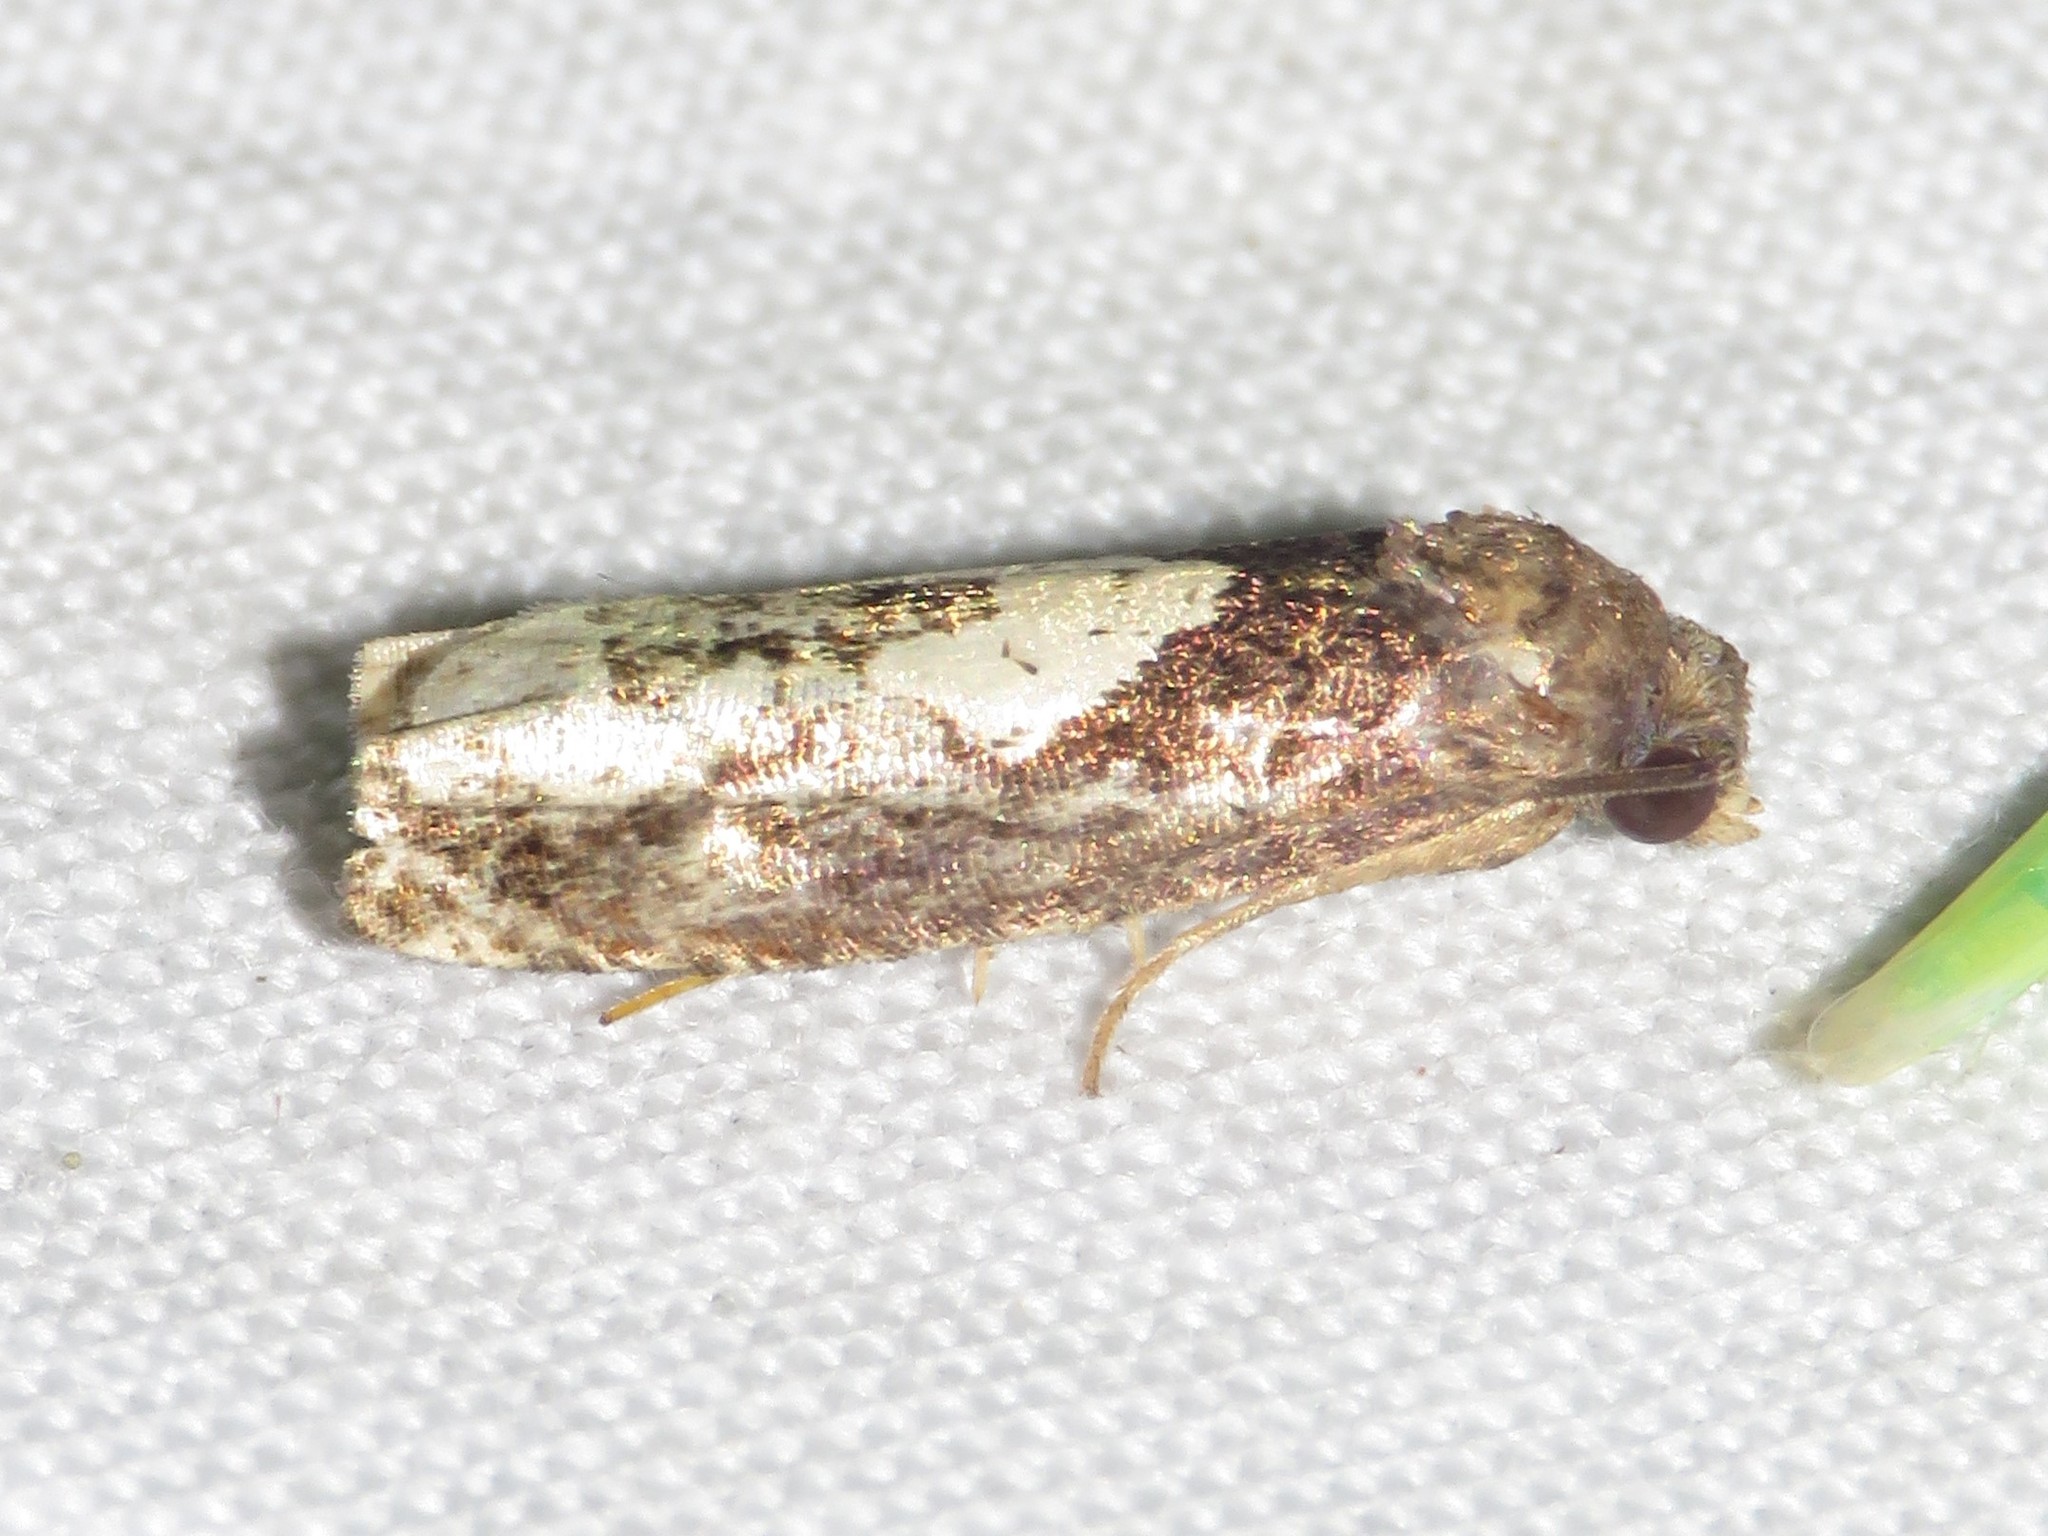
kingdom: Animalia
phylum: Arthropoda
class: Insecta
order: Lepidoptera
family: Tortricidae
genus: Epiblema
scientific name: Epiblema dorsisuffusana
